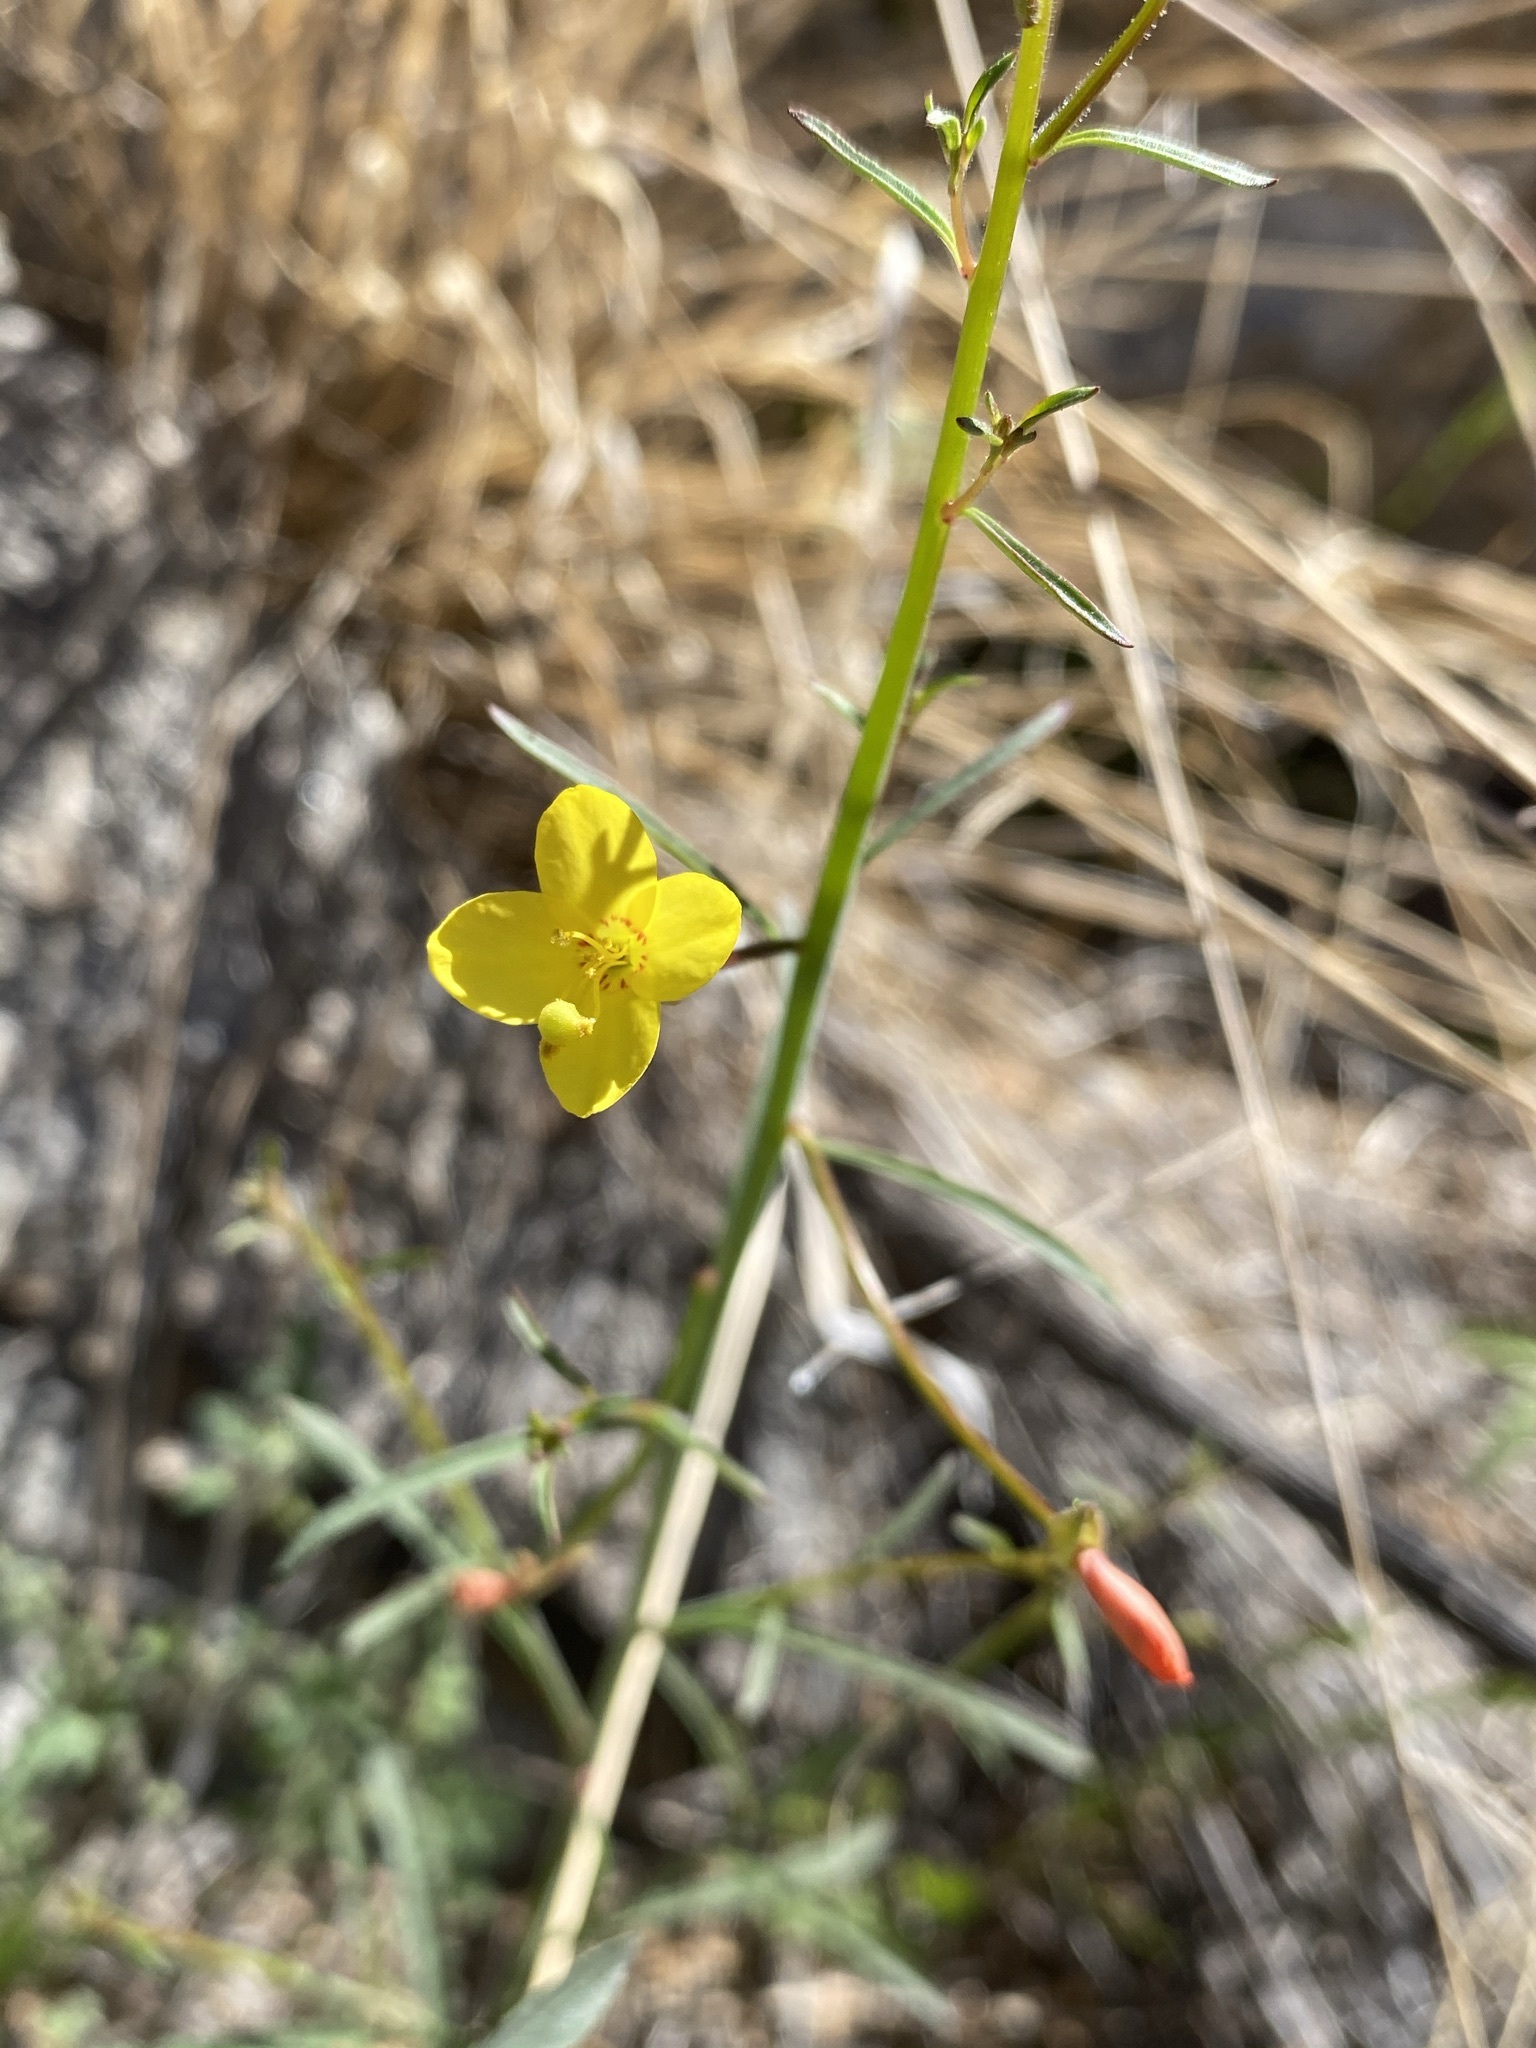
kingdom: Plantae
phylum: Tracheophyta
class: Magnoliopsida
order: Myrtales
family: Onagraceae
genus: Eulobus
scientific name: Eulobus californicus
